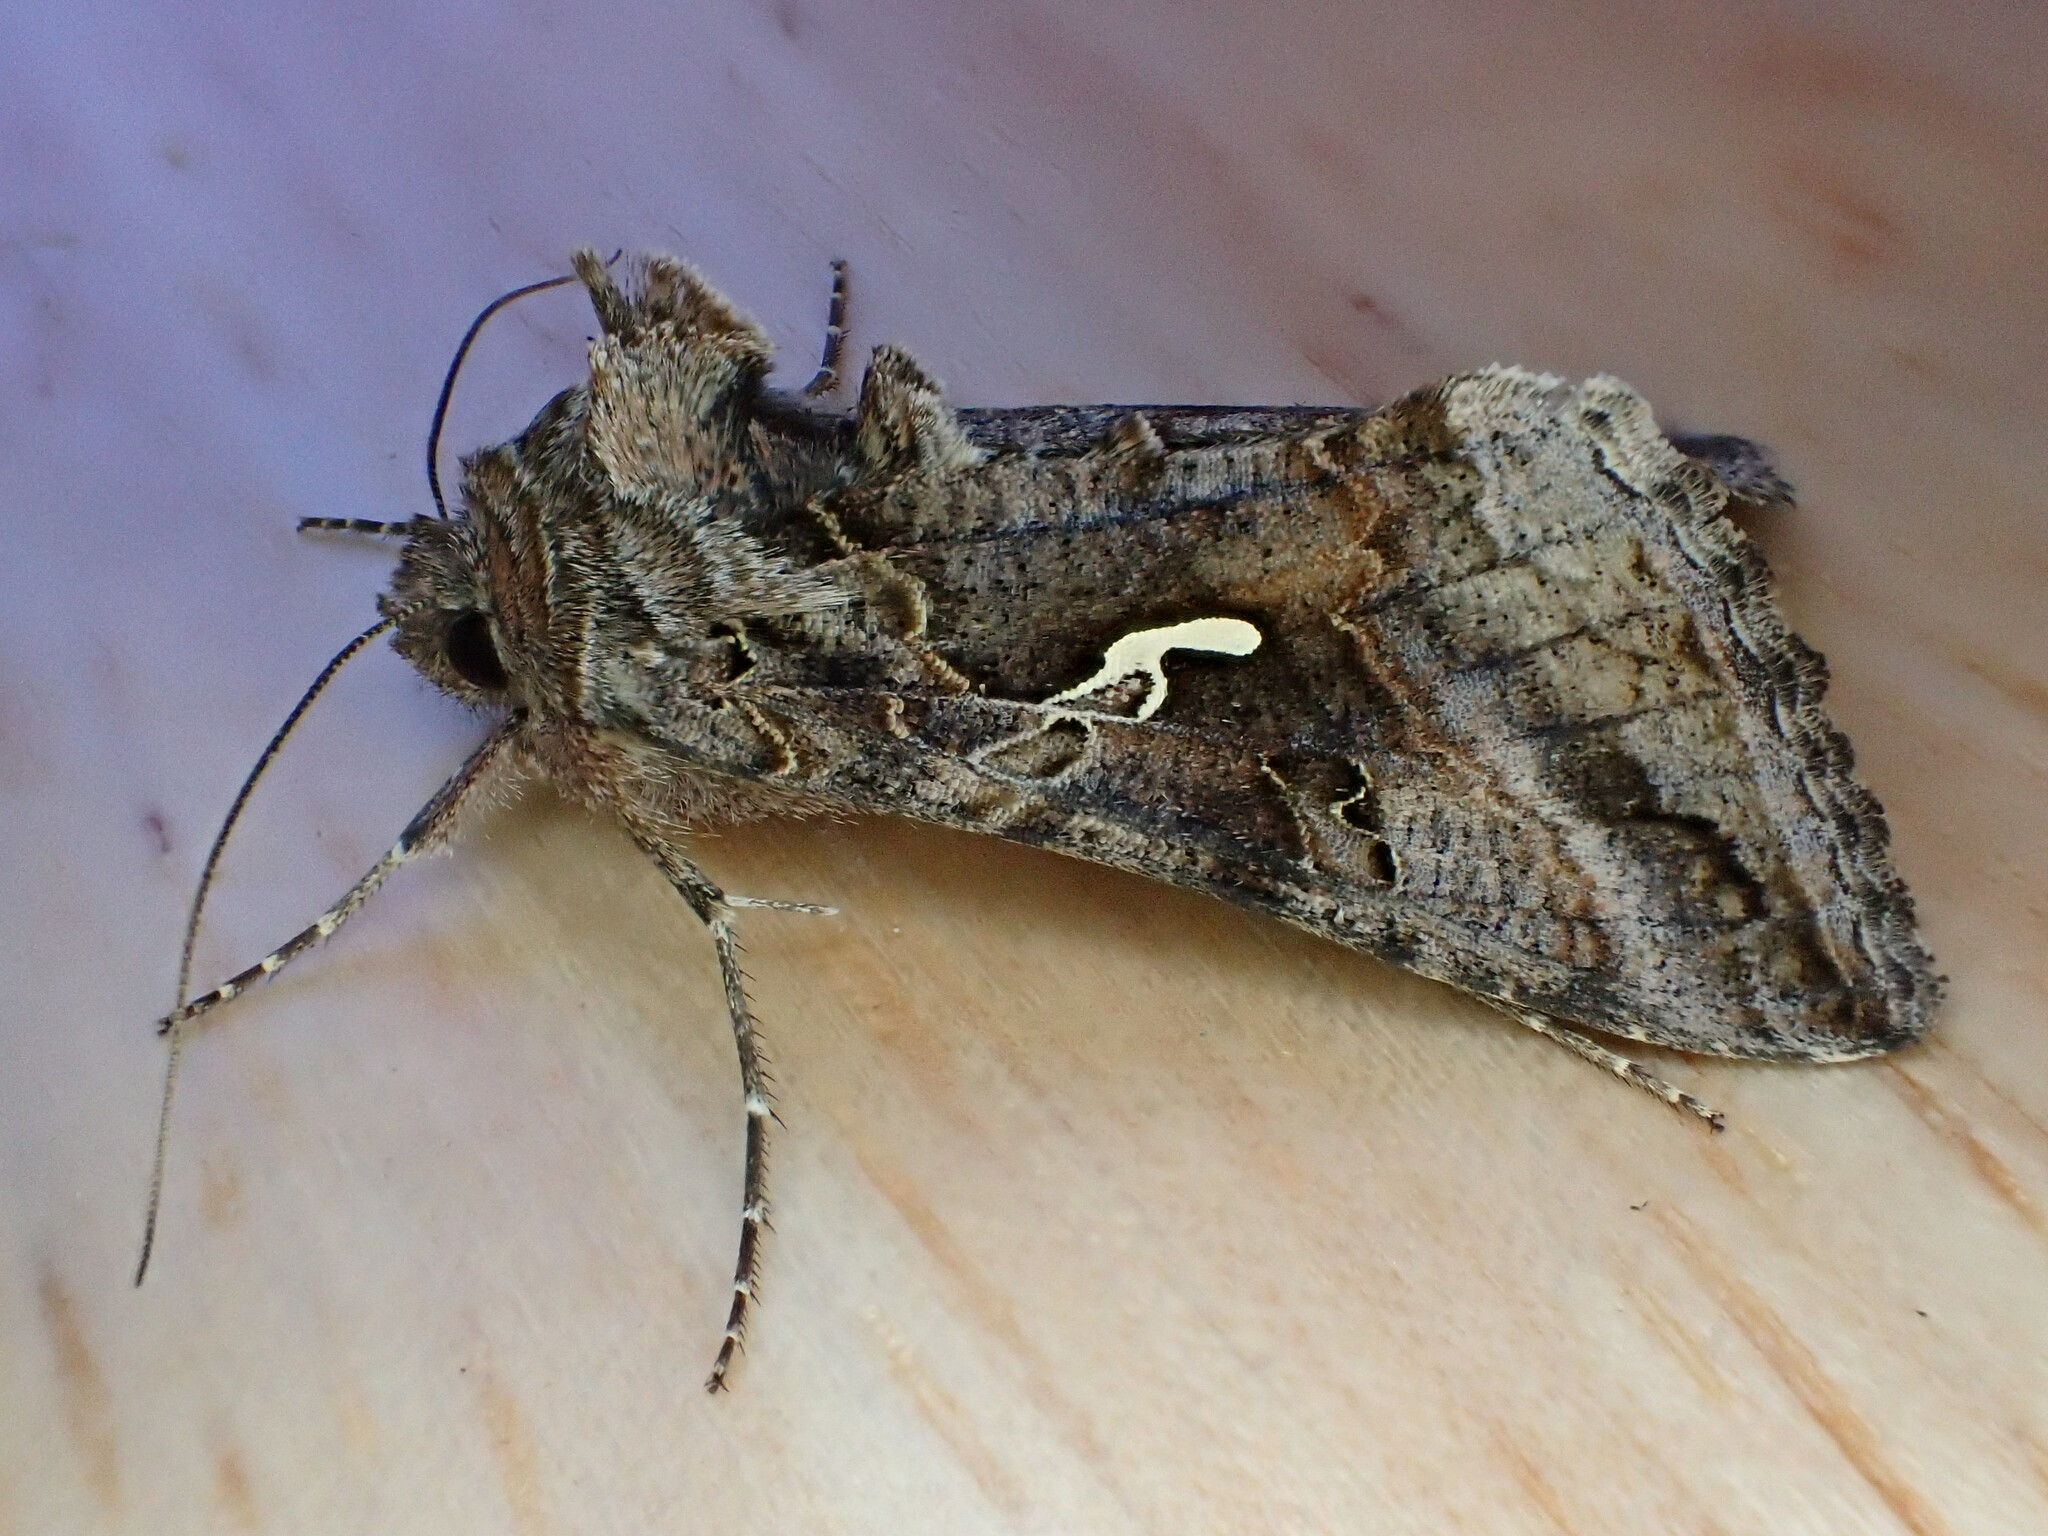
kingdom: Animalia
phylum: Arthropoda
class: Insecta
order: Lepidoptera
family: Noctuidae
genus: Autographa
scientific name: Autographa gamma
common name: Silver y
